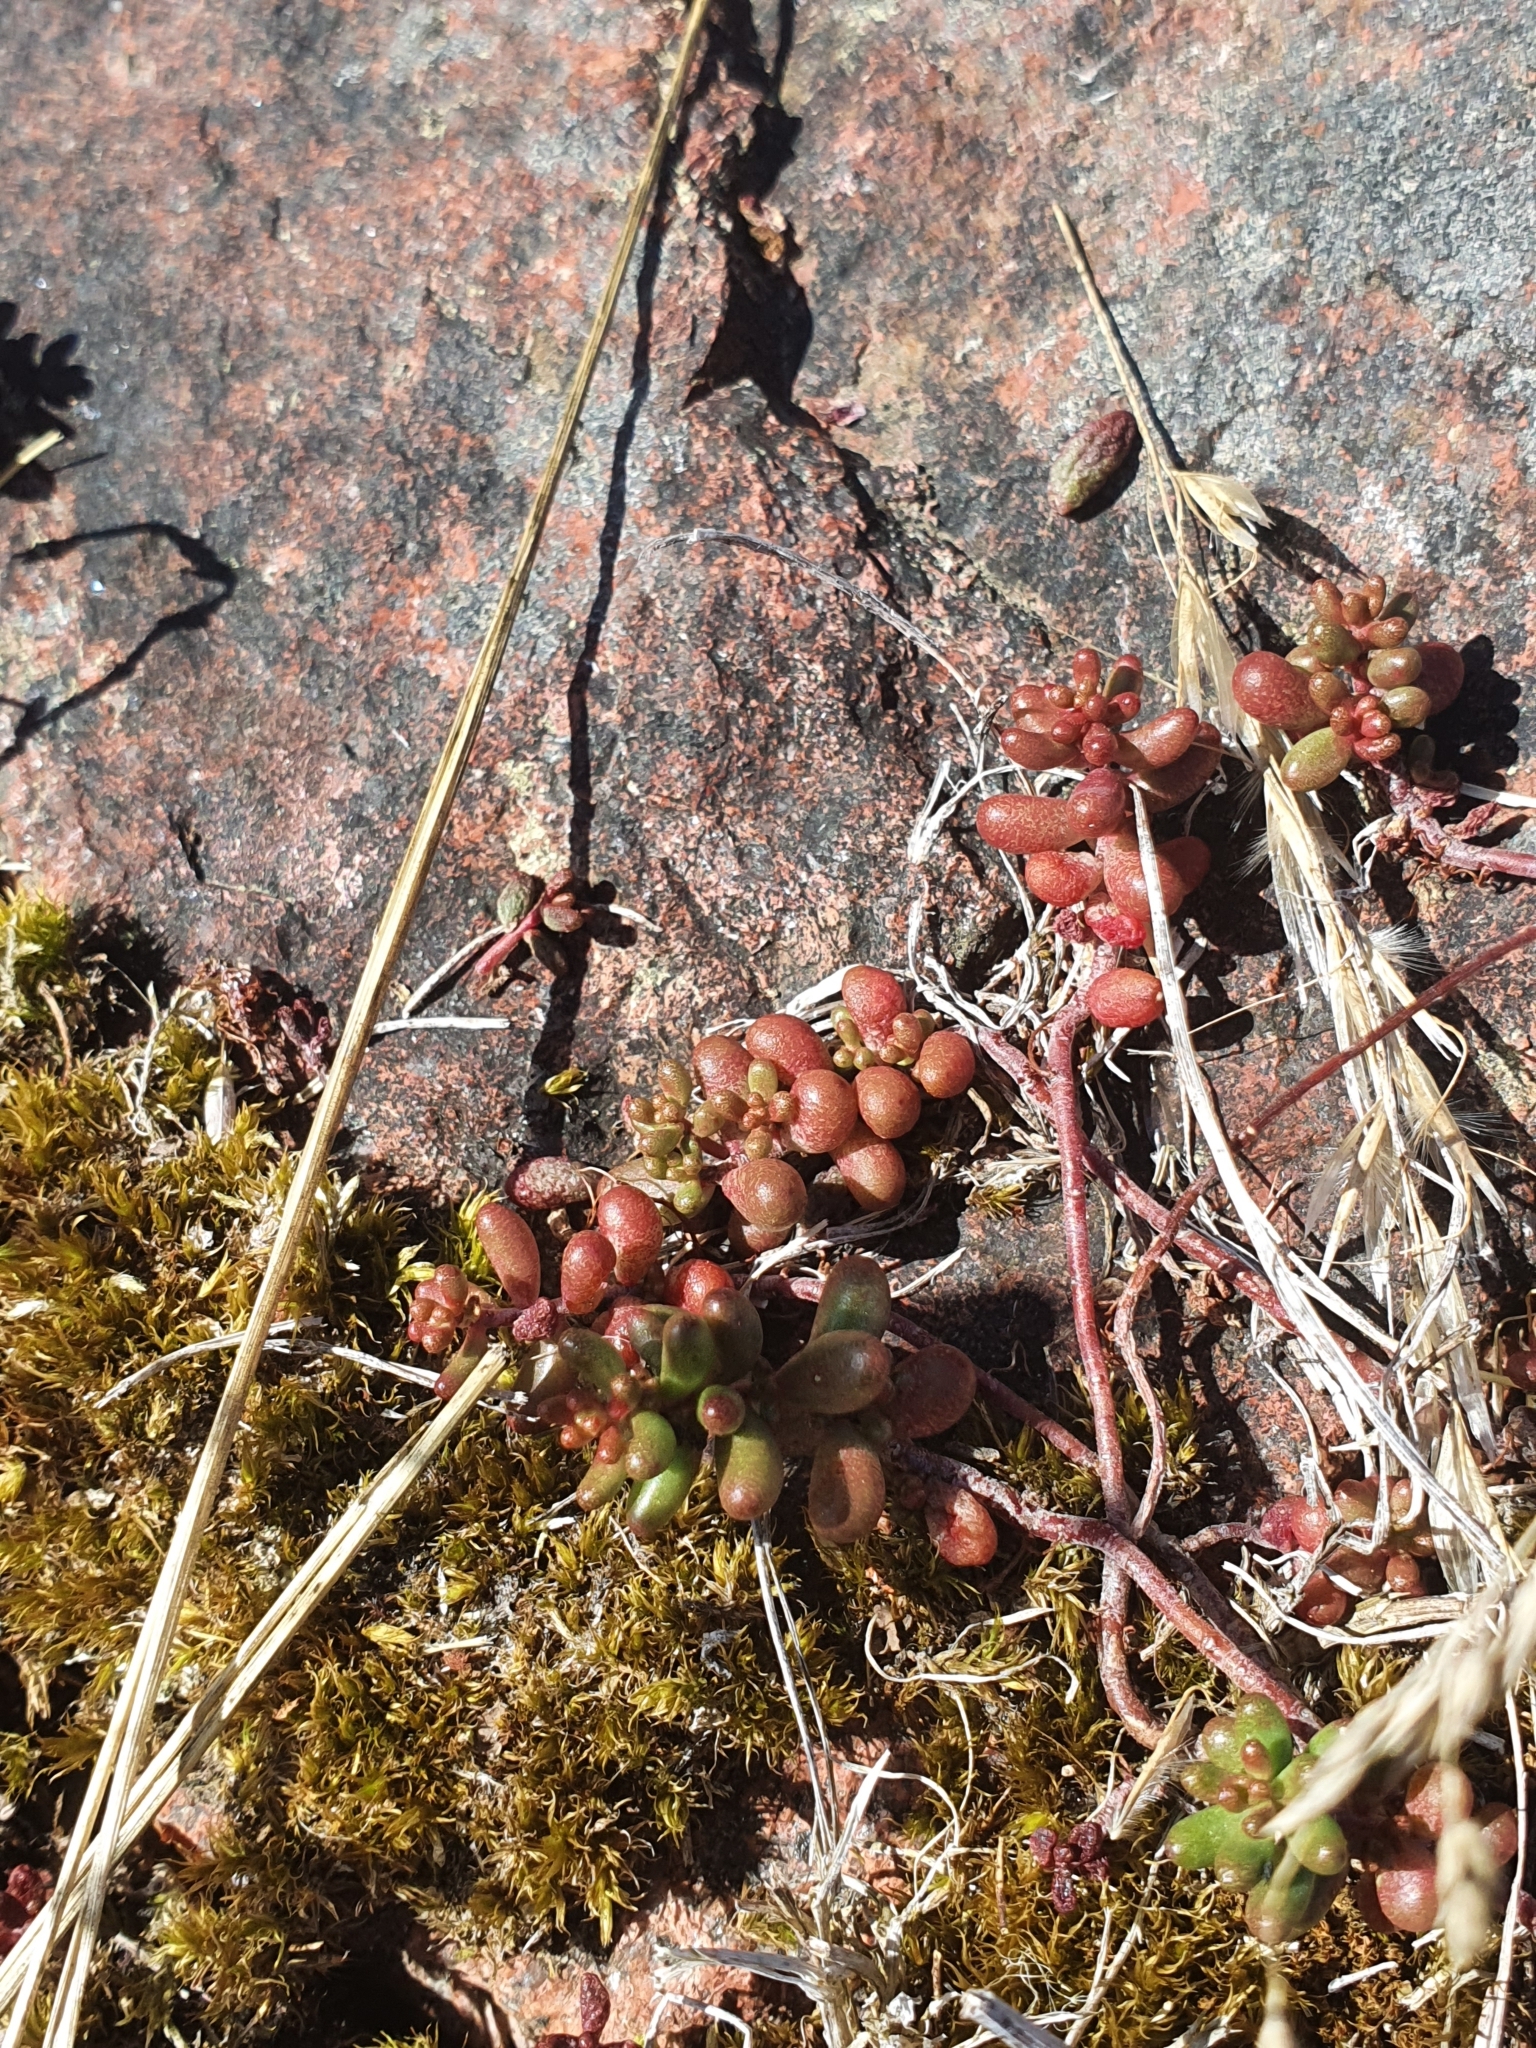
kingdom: Plantae
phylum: Tracheophyta
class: Magnoliopsida
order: Saxifragales
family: Crassulaceae
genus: Sedum
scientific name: Sedum album
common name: White stonecrop
